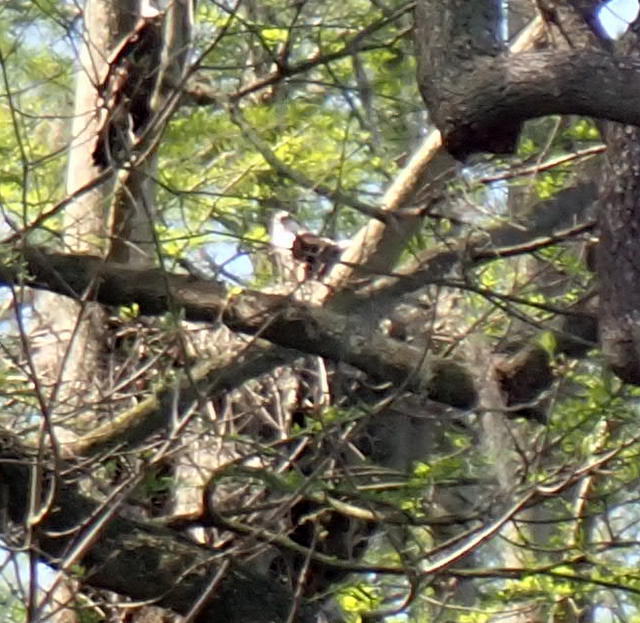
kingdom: Animalia
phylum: Chordata
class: Aves
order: Accipitriformes
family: Pandionidae
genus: Pandion
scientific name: Pandion haliaetus
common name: Osprey
